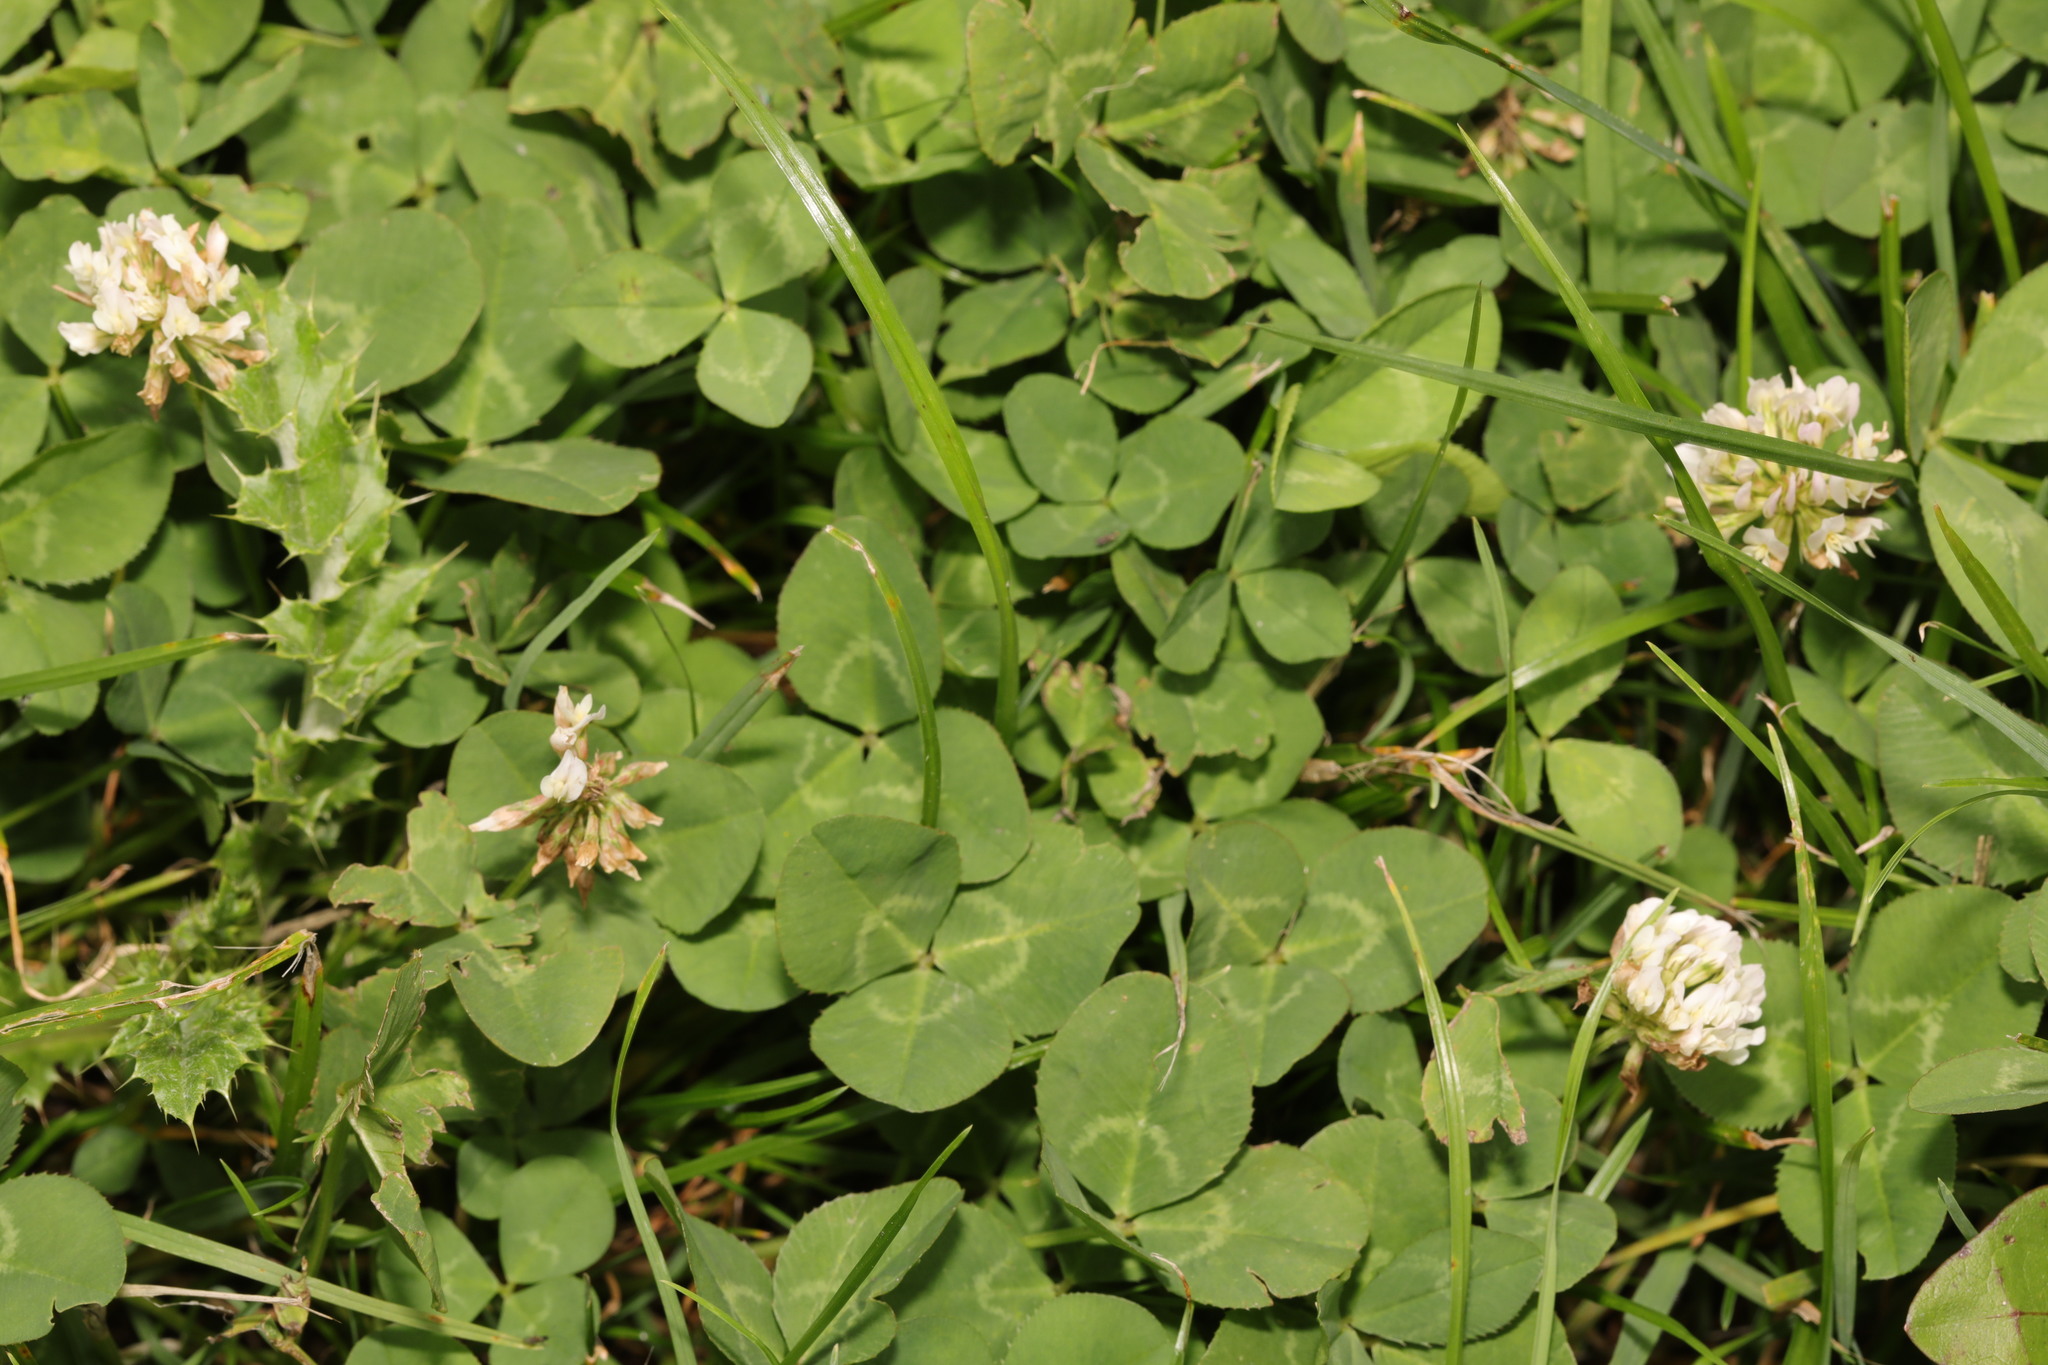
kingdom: Plantae
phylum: Tracheophyta
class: Magnoliopsida
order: Fabales
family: Fabaceae
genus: Trifolium
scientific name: Trifolium repens
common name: White clover
